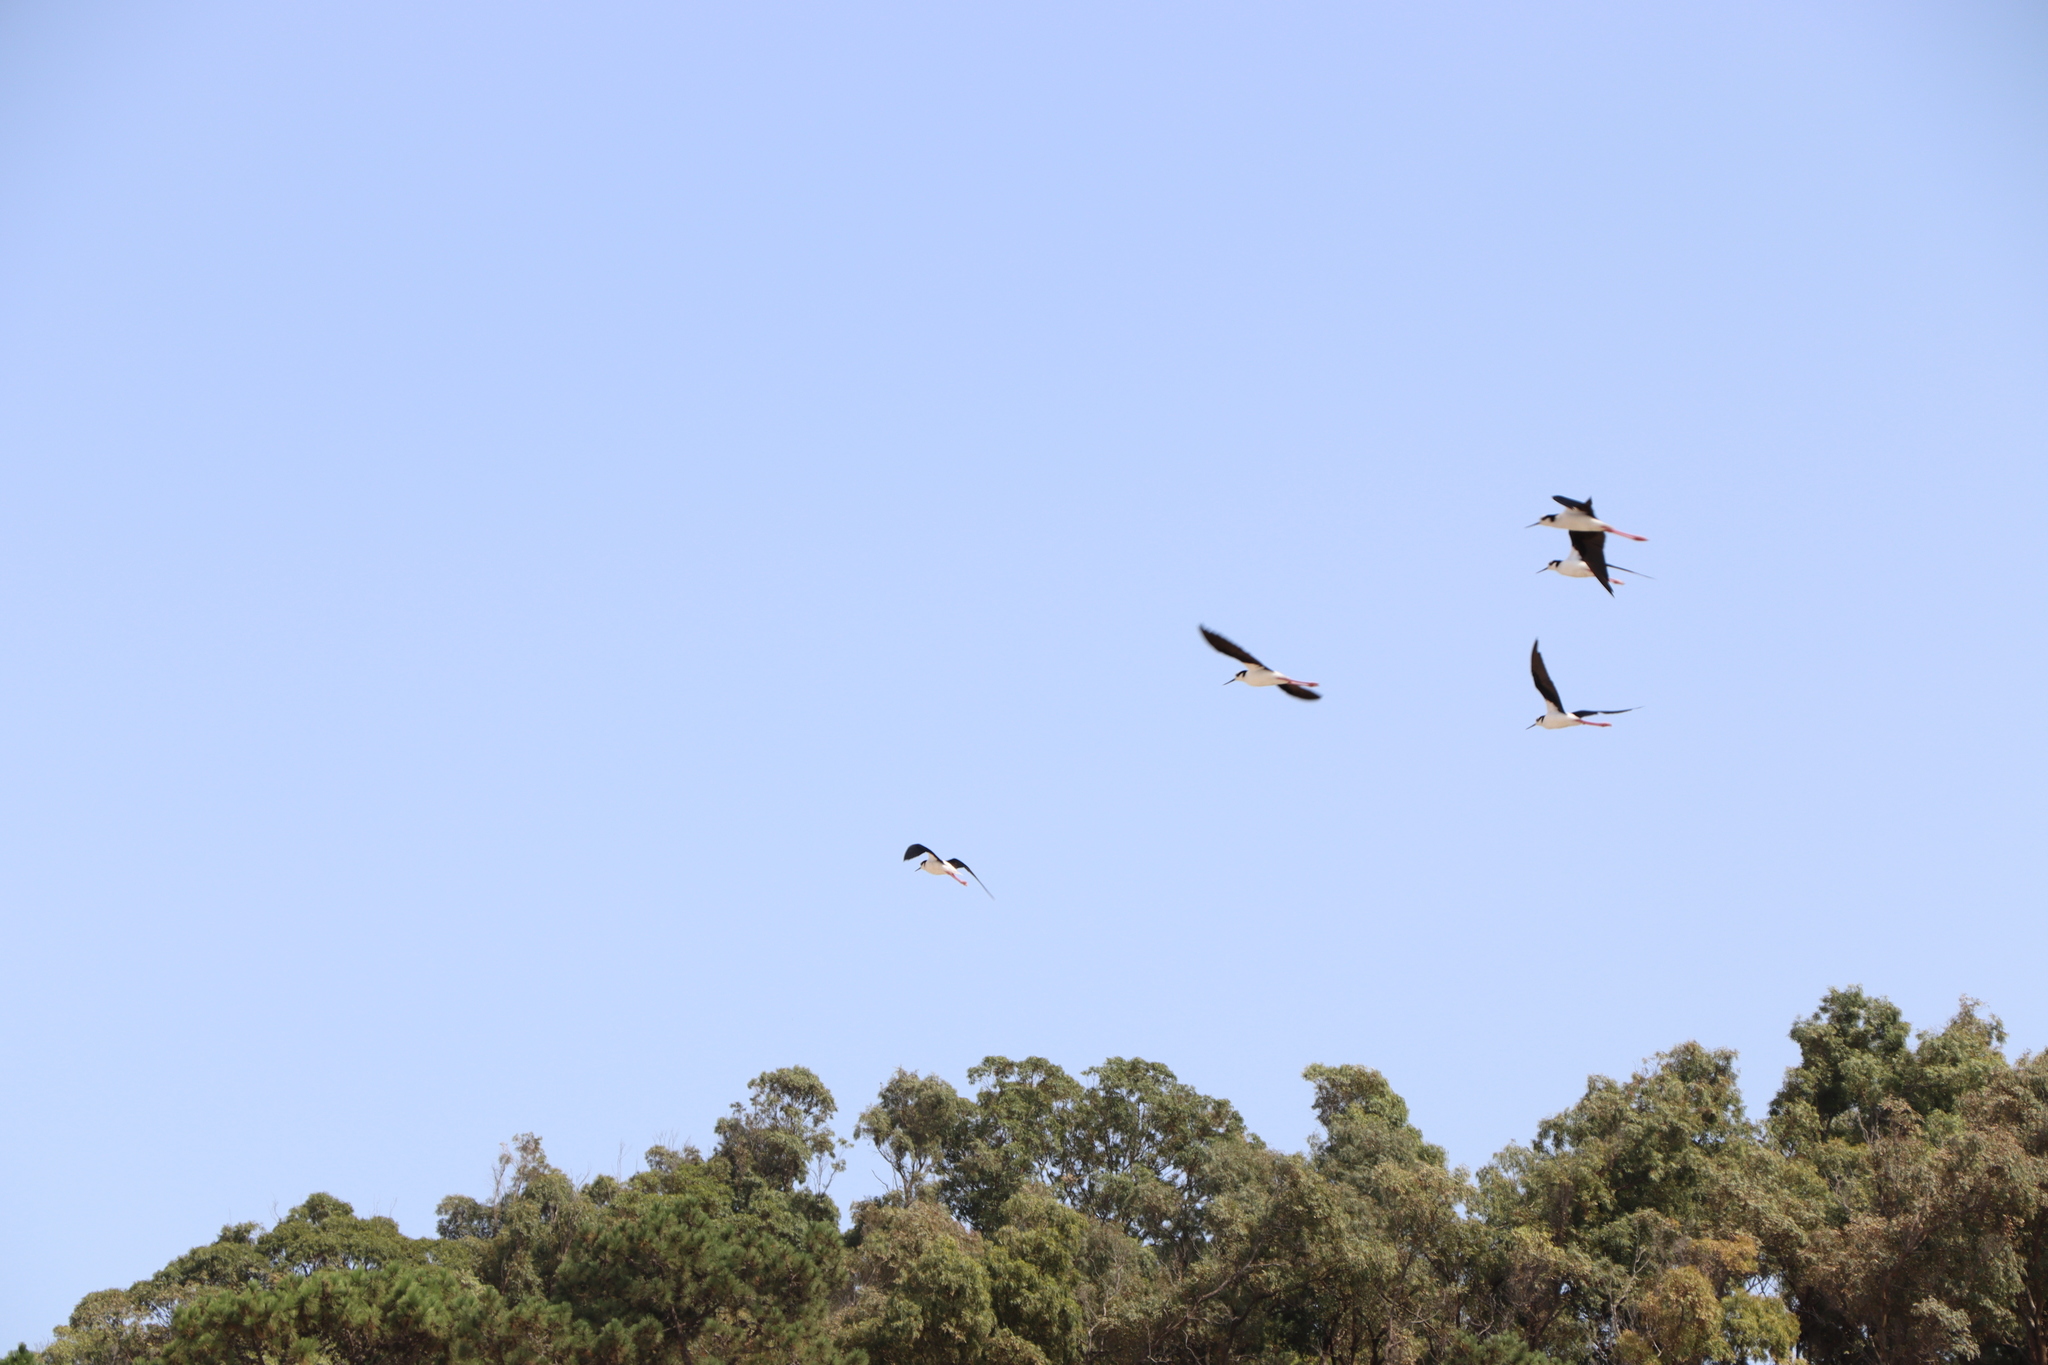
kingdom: Animalia
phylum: Chordata
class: Aves
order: Charadriiformes
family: Recurvirostridae
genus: Himantopus
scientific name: Himantopus mexicanus
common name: Black-necked stilt
